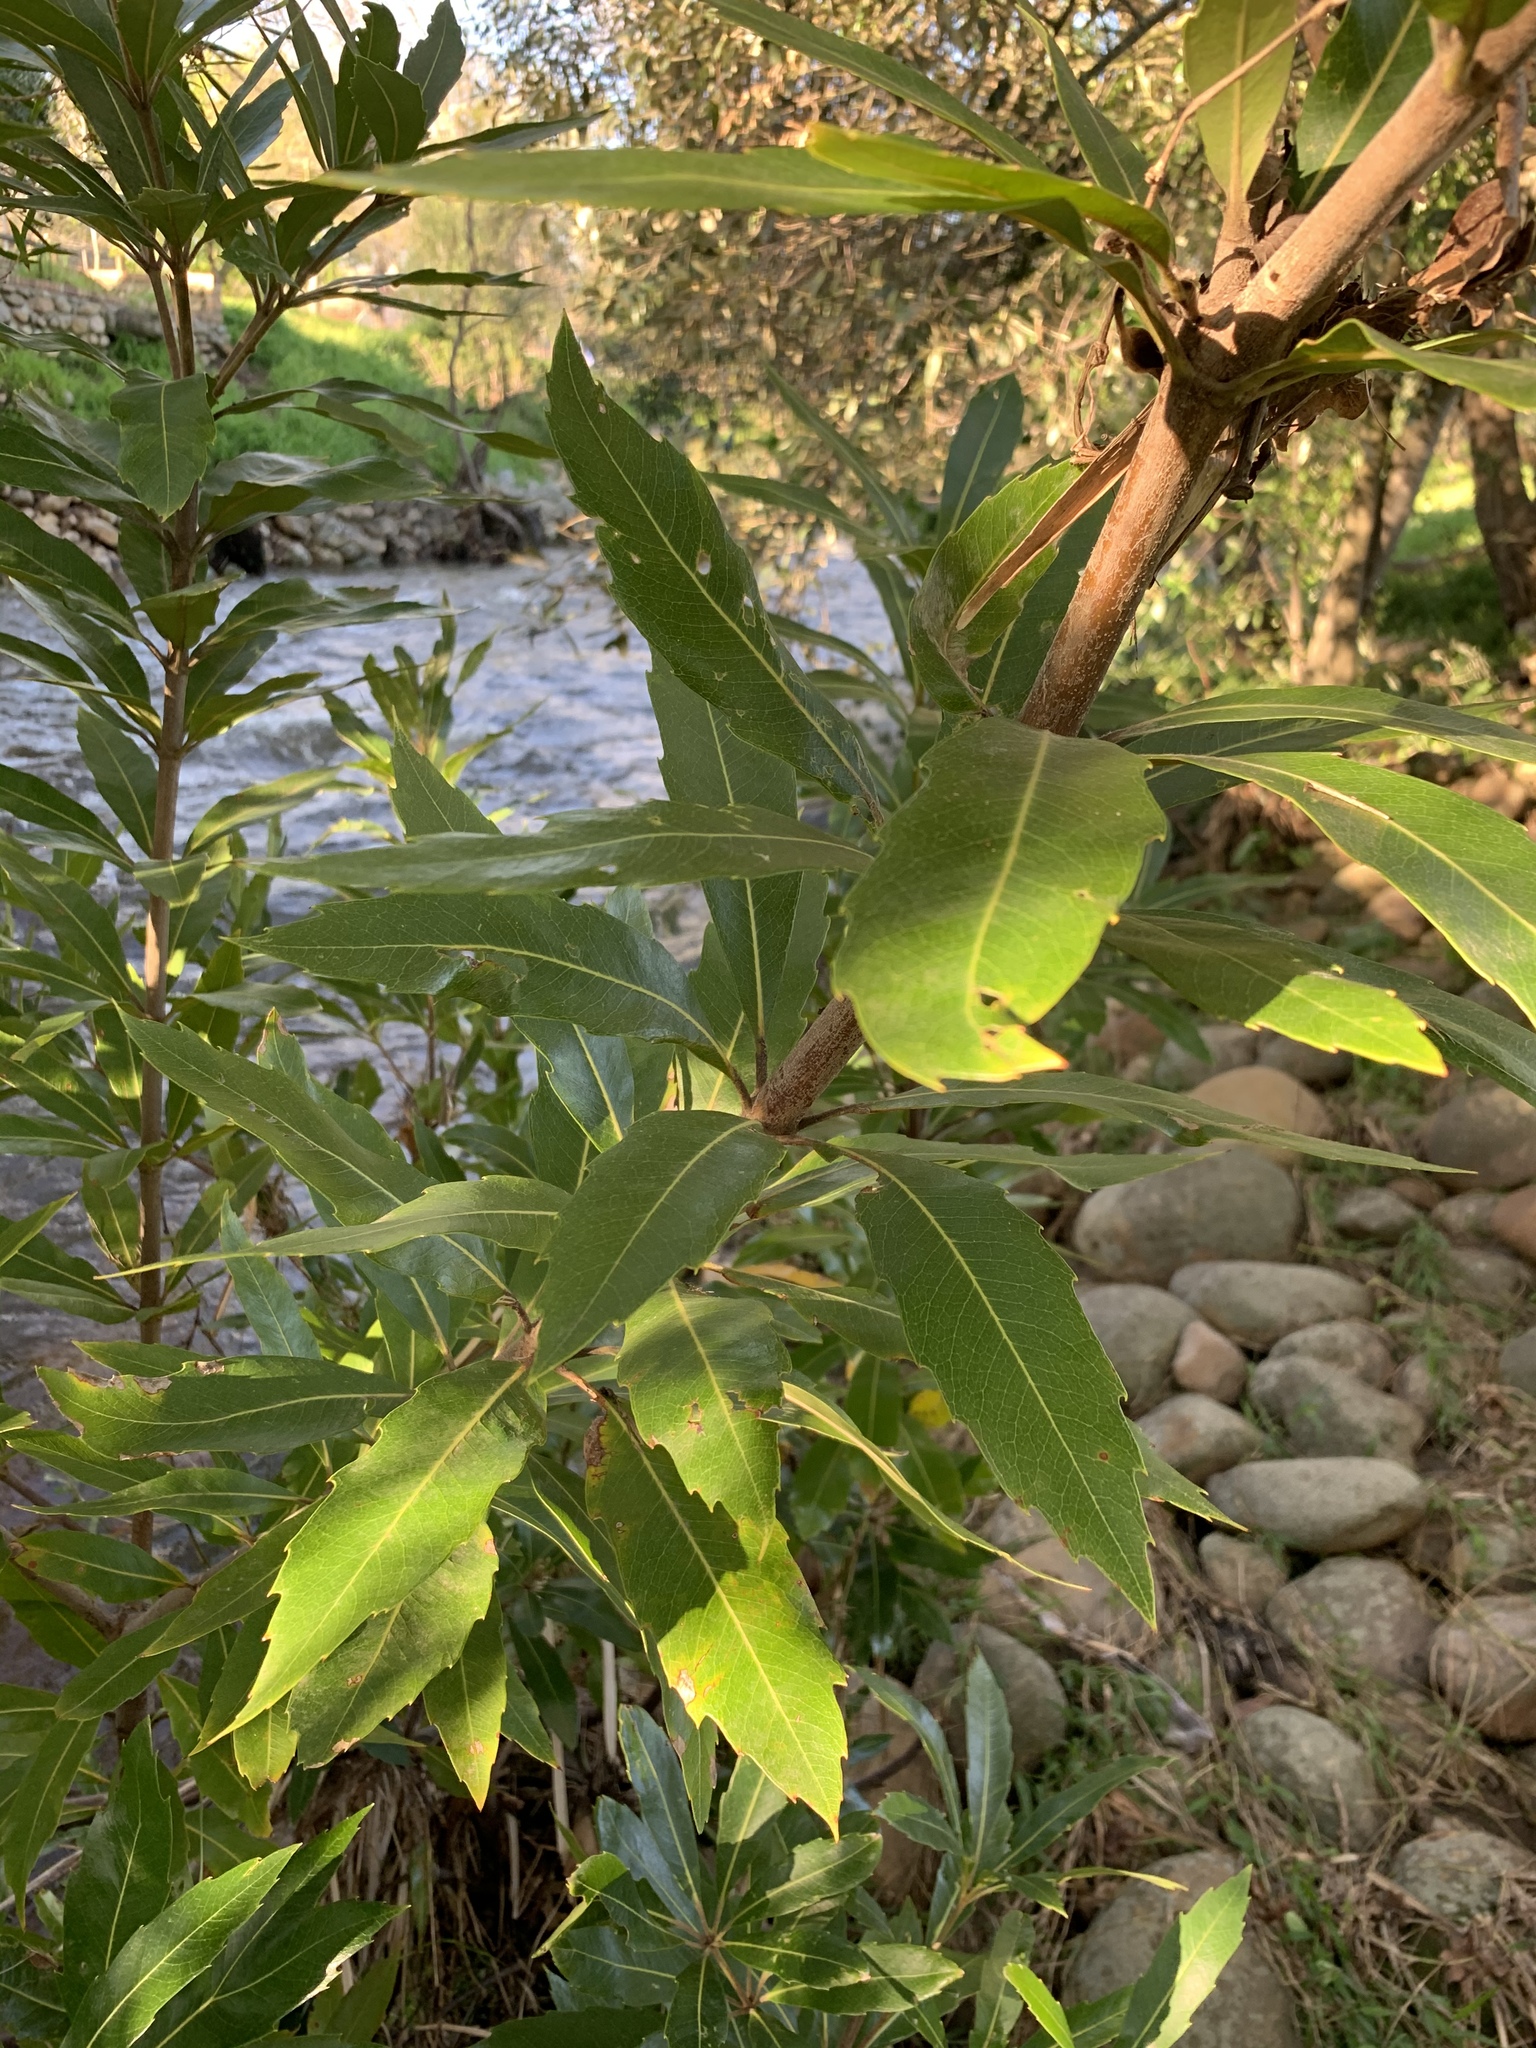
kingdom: Plantae
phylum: Tracheophyta
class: Magnoliopsida
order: Proteales
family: Proteaceae
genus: Brabejum
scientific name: Brabejum stellatifolium
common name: Wild almond
